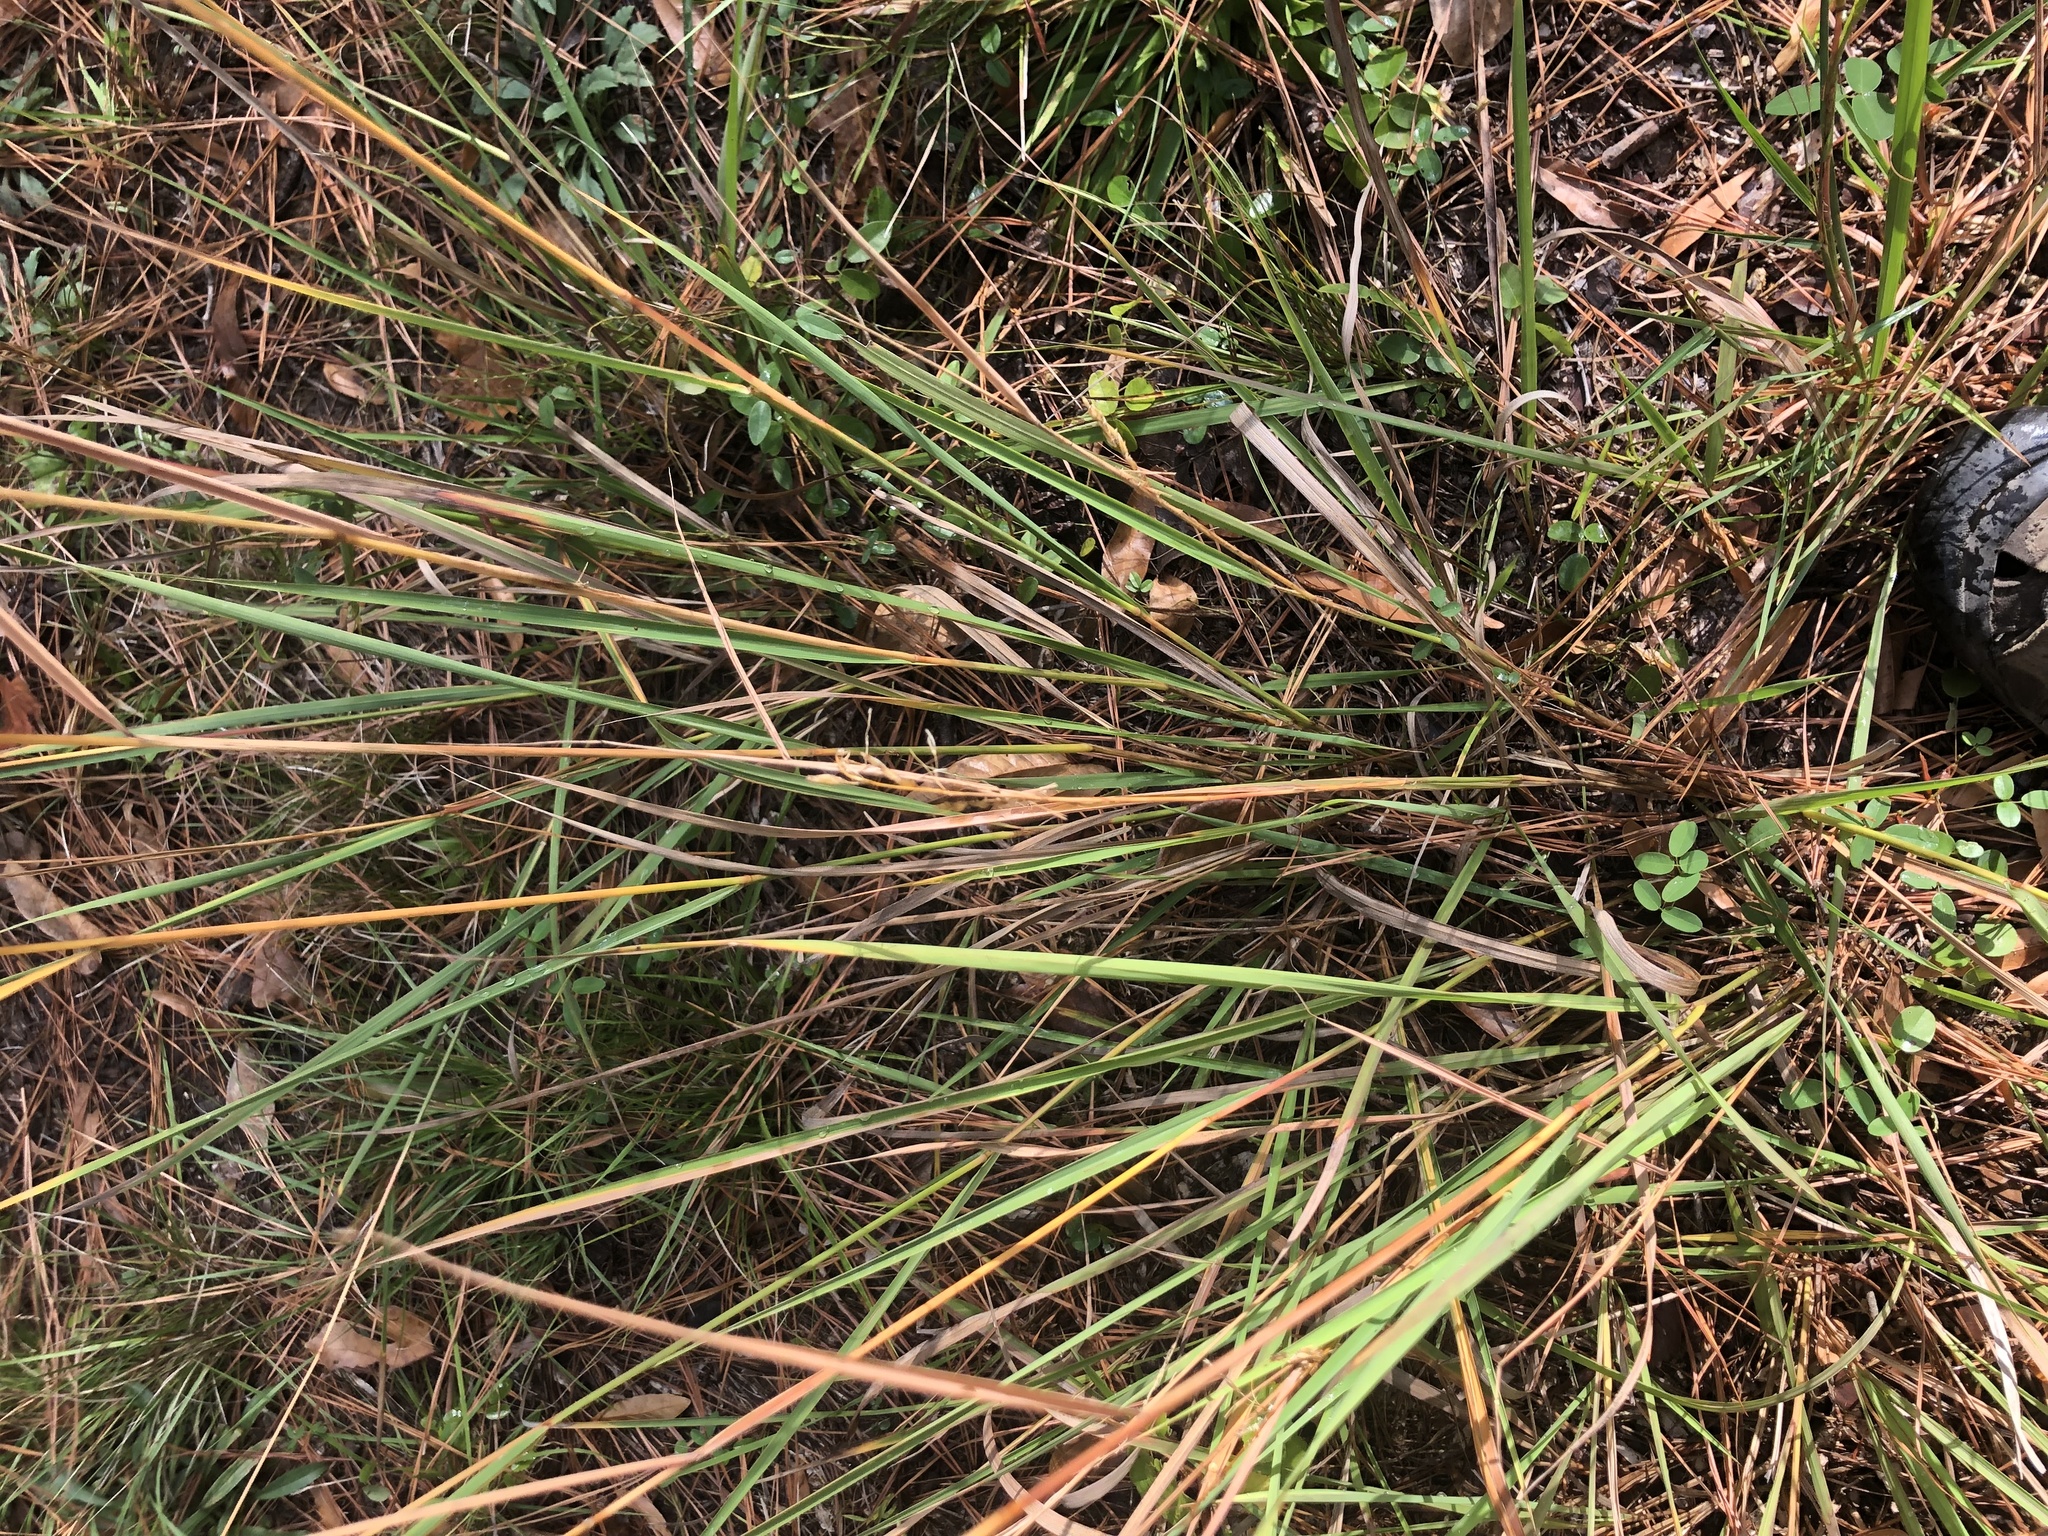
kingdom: Plantae
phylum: Tracheophyta
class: Liliopsida
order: Poales
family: Poaceae
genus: Sorghastrum
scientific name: Sorghastrum nutans
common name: Indian grass
